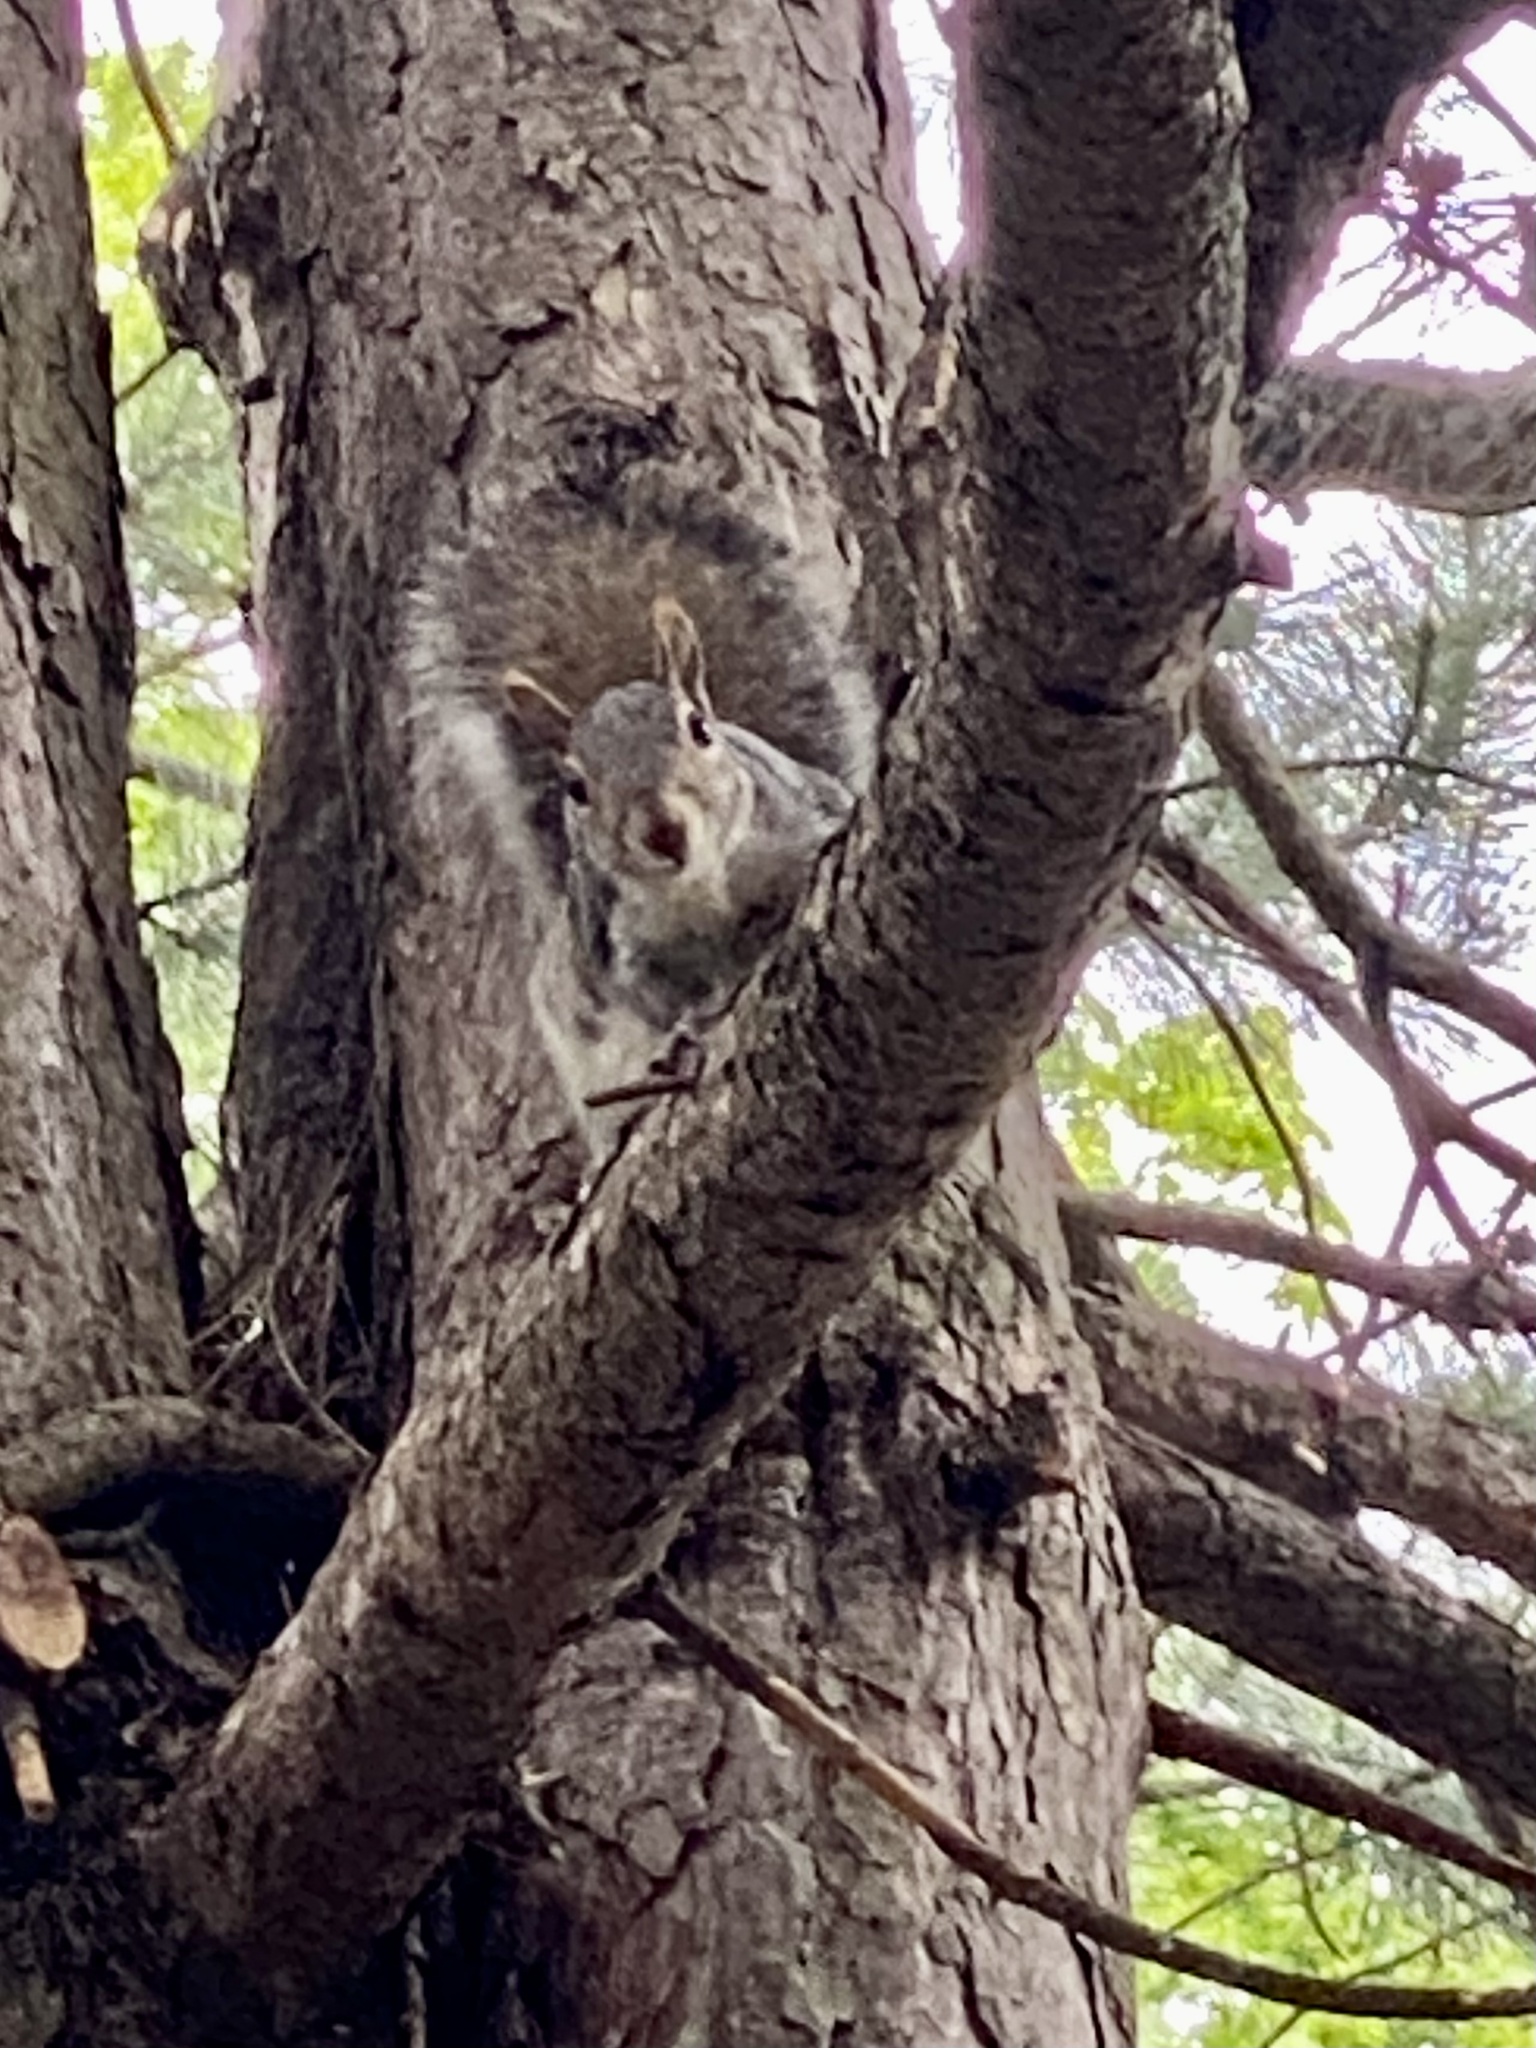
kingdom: Animalia
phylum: Chordata
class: Mammalia
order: Rodentia
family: Sciuridae
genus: Sciurus
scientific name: Sciurus carolinensis
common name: Eastern gray squirrel
